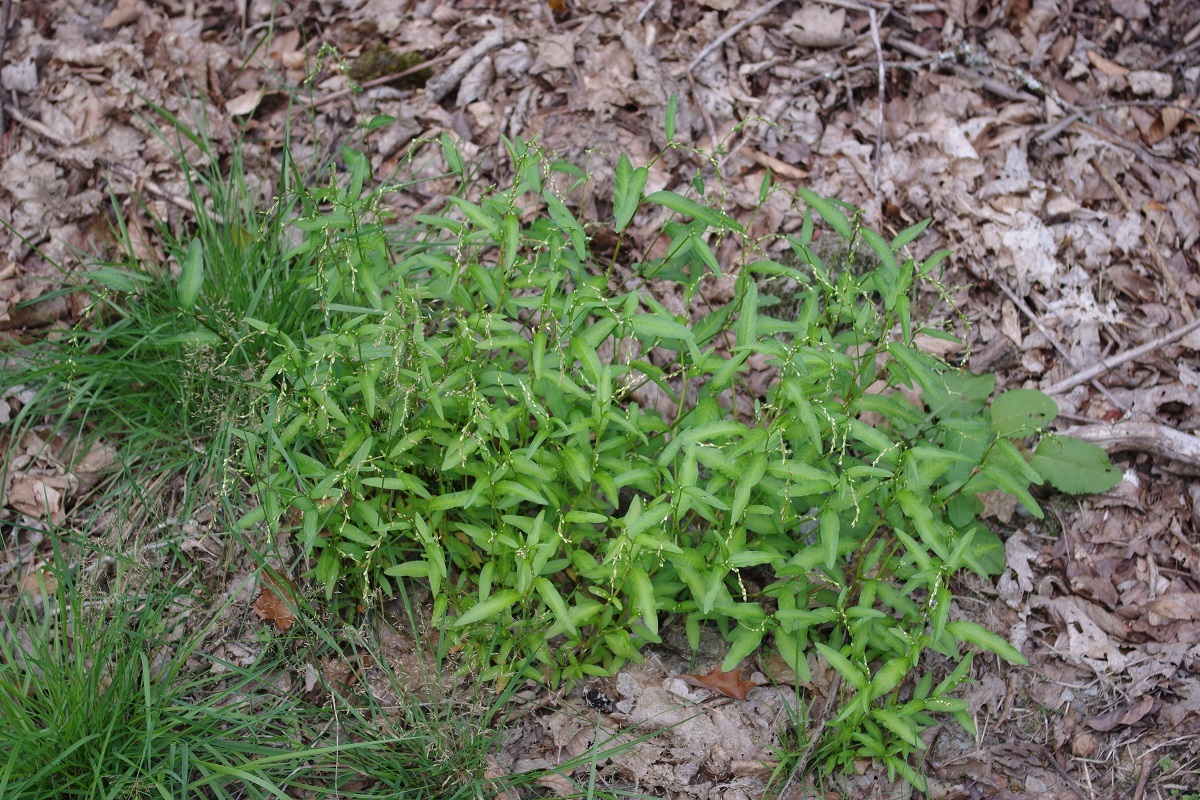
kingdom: Plantae
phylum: Tracheophyta
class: Magnoliopsida
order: Caryophyllales
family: Polygonaceae
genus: Persicaria
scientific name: Persicaria hydropiper
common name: Water-pepper
